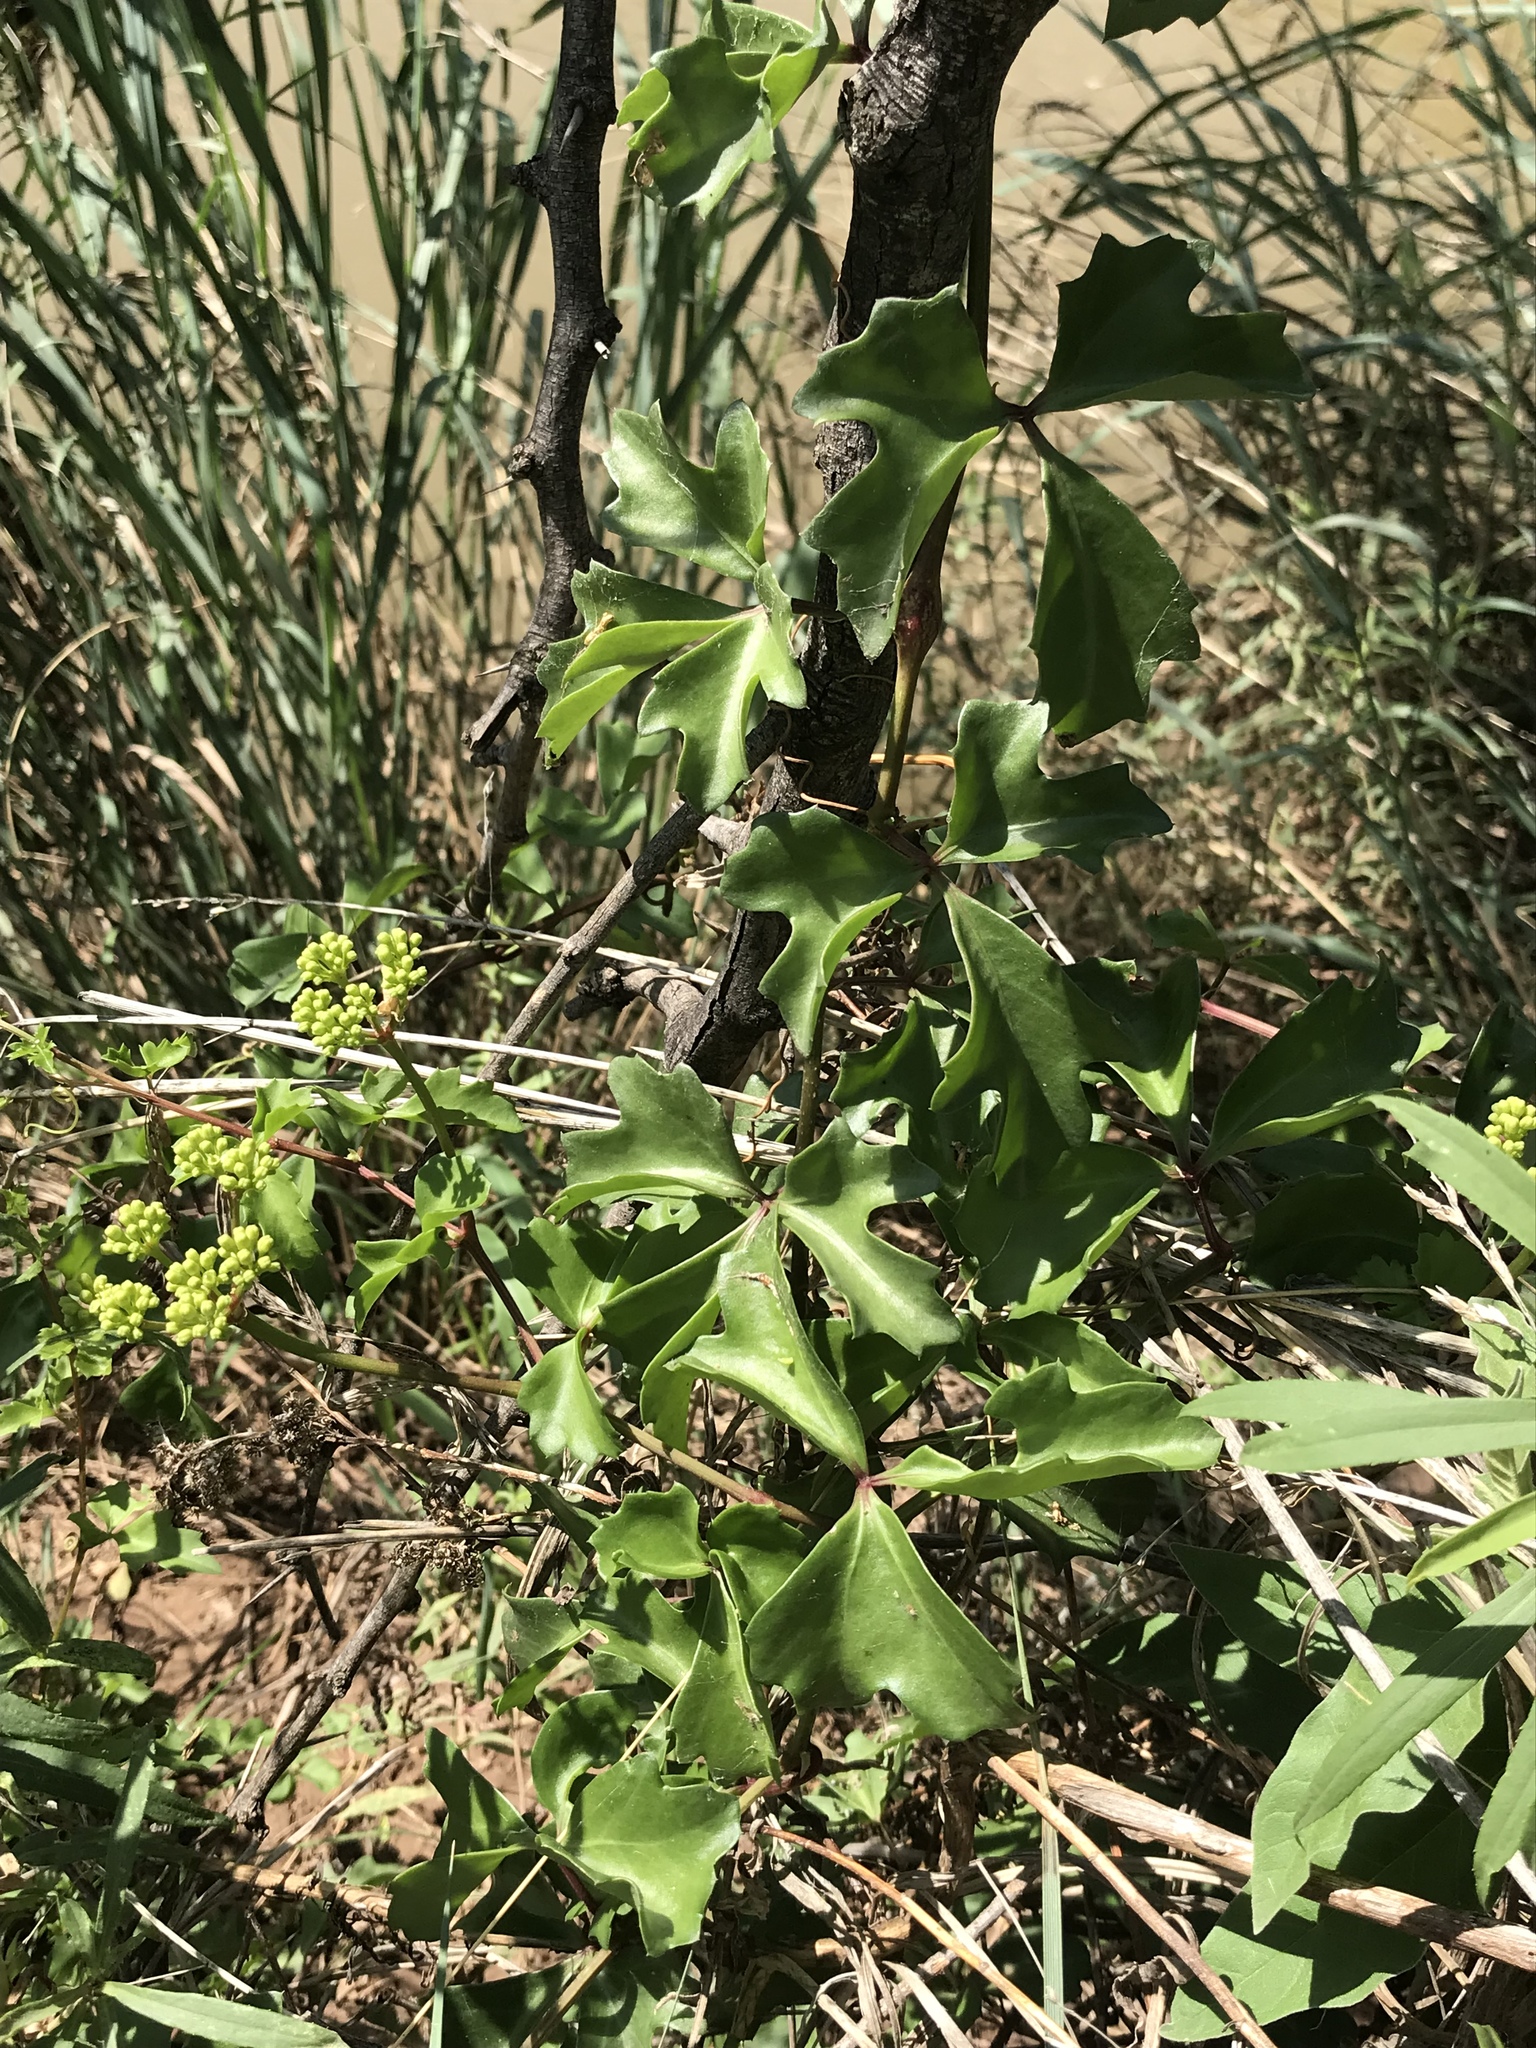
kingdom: Plantae
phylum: Tracheophyta
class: Magnoliopsida
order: Vitales
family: Vitaceae
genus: Cissus
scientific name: Cissus trifoliata
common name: Vine-sorrel
